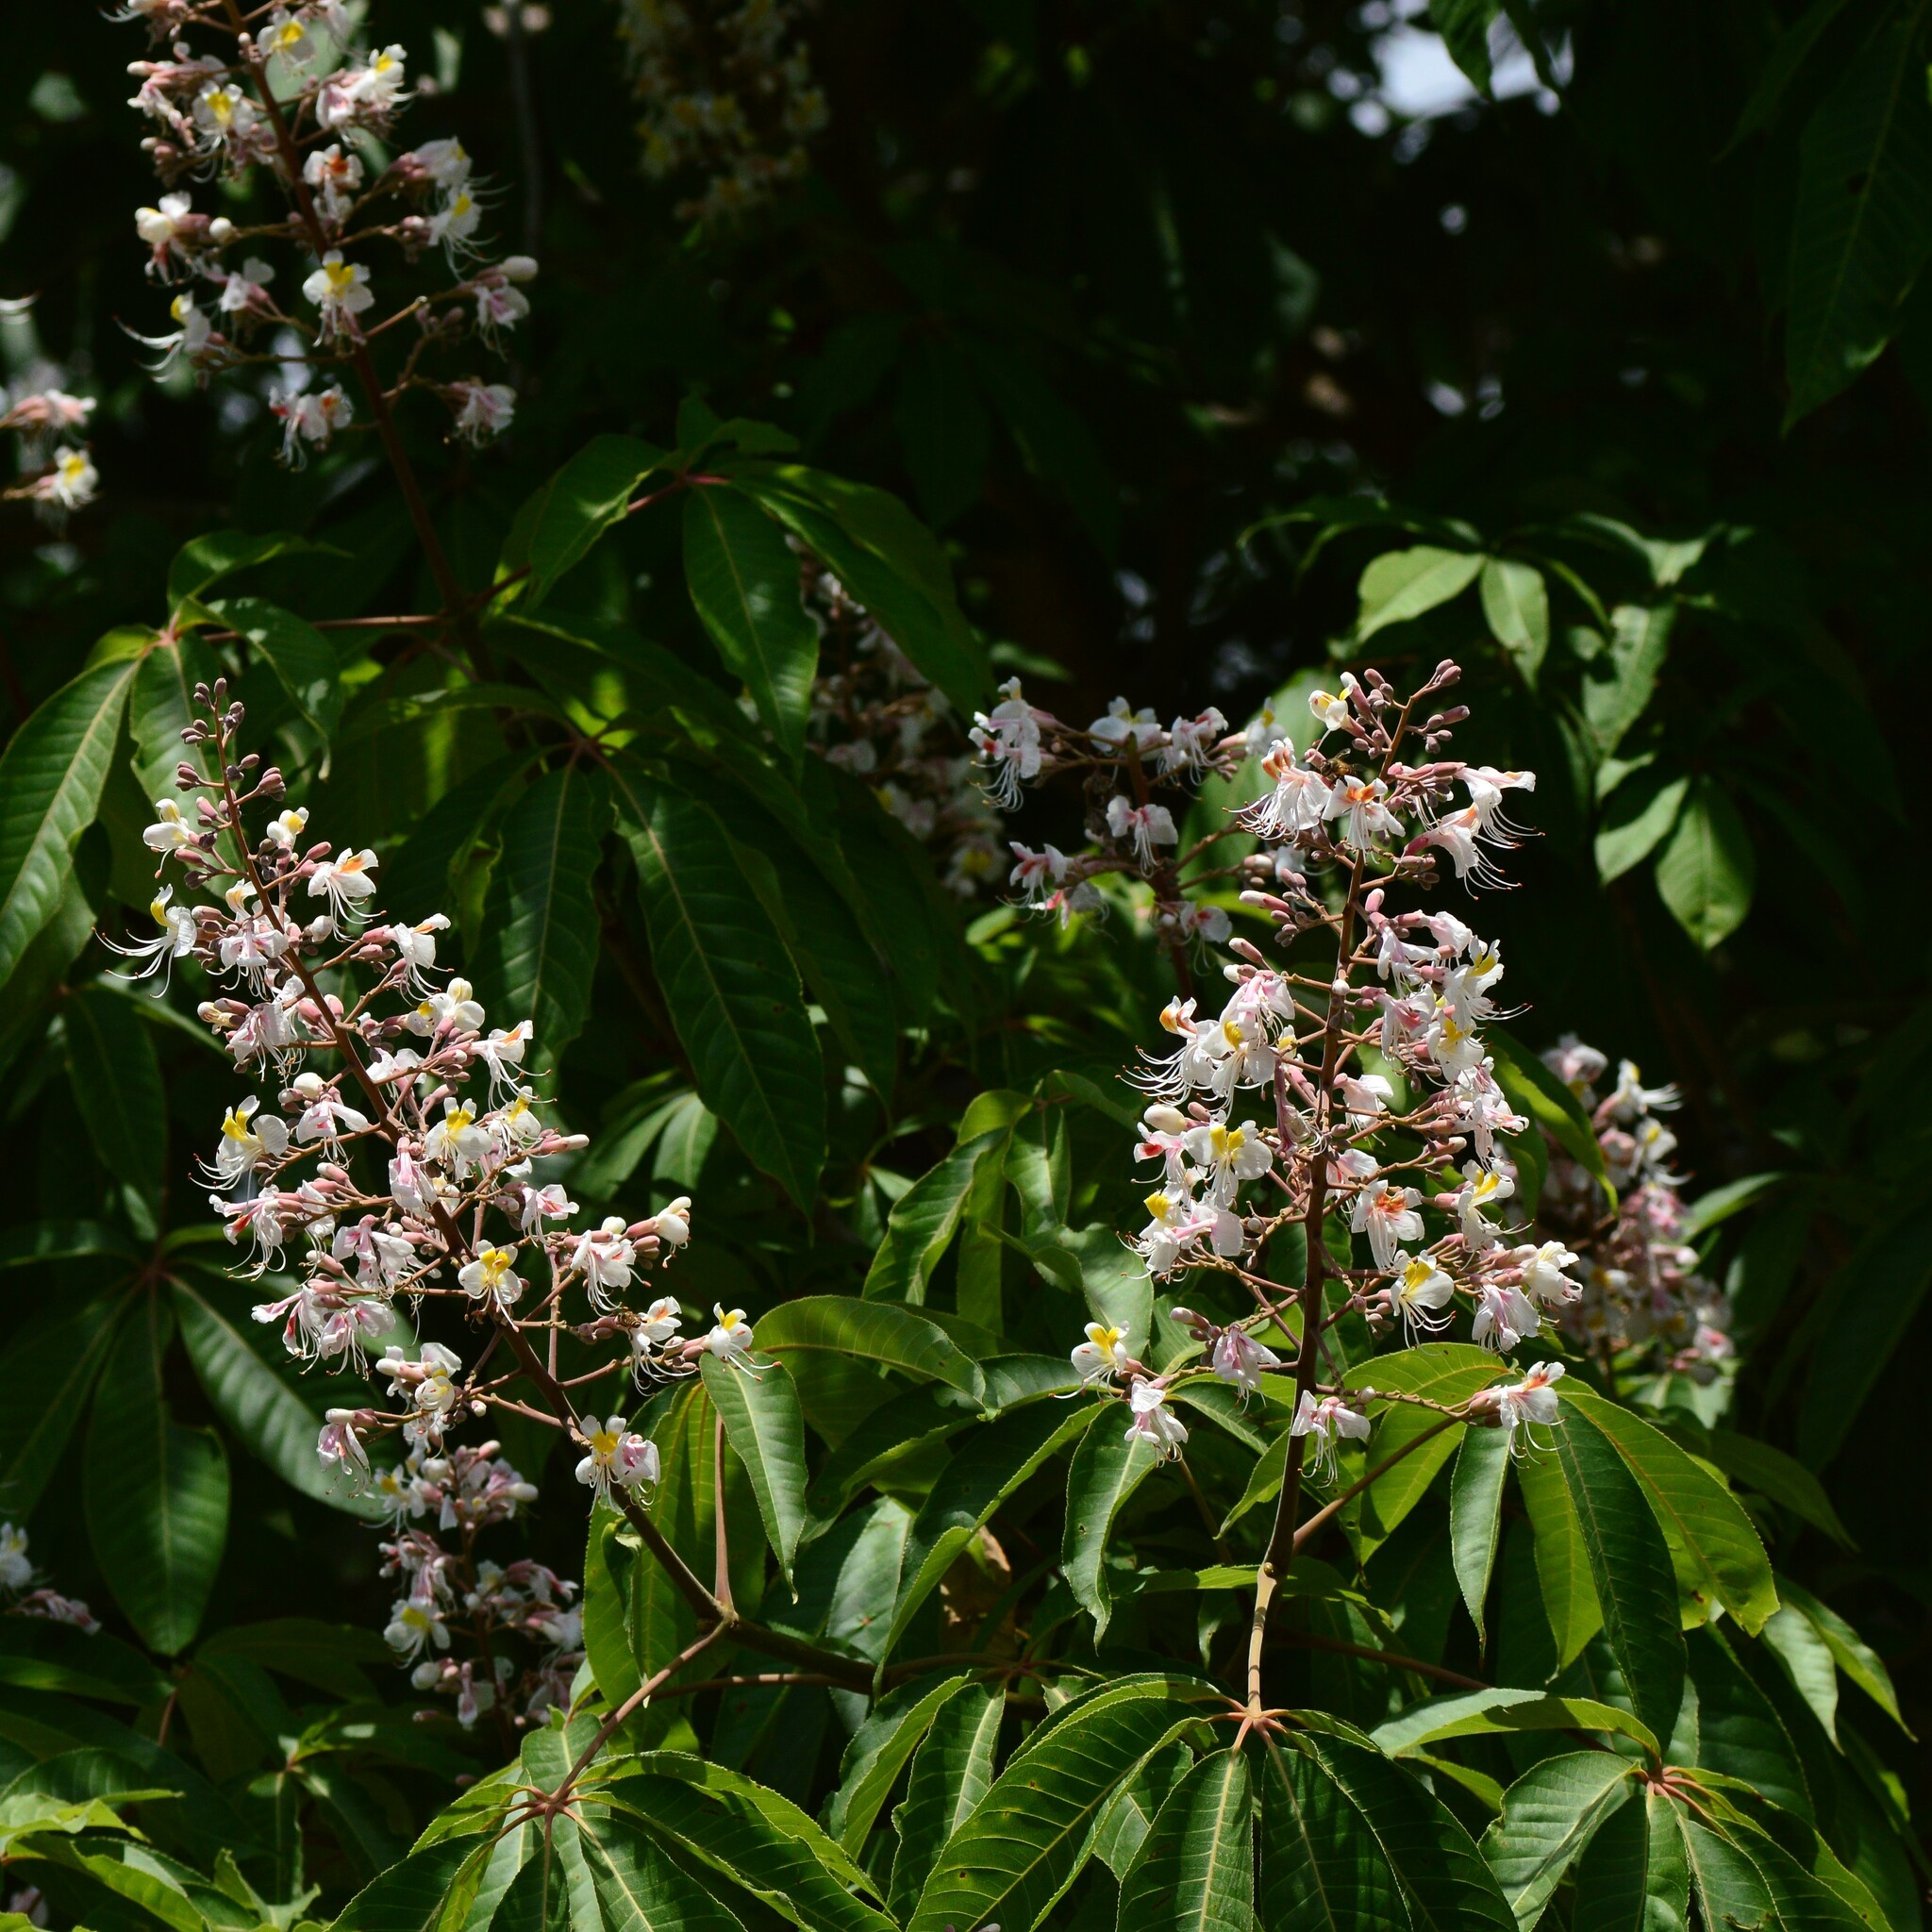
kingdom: Plantae
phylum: Tracheophyta
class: Magnoliopsida
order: Sapindales
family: Sapindaceae
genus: Aesculus
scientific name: Aesculus indica
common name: Indian horse-chestnut
